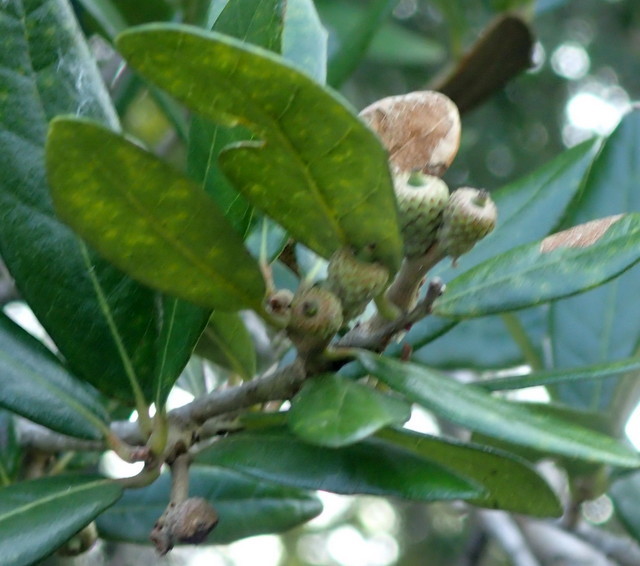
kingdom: Plantae
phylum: Tracheophyta
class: Magnoliopsida
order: Fagales
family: Fagaceae
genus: Quercus
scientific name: Quercus virginiana
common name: Southern live oak
